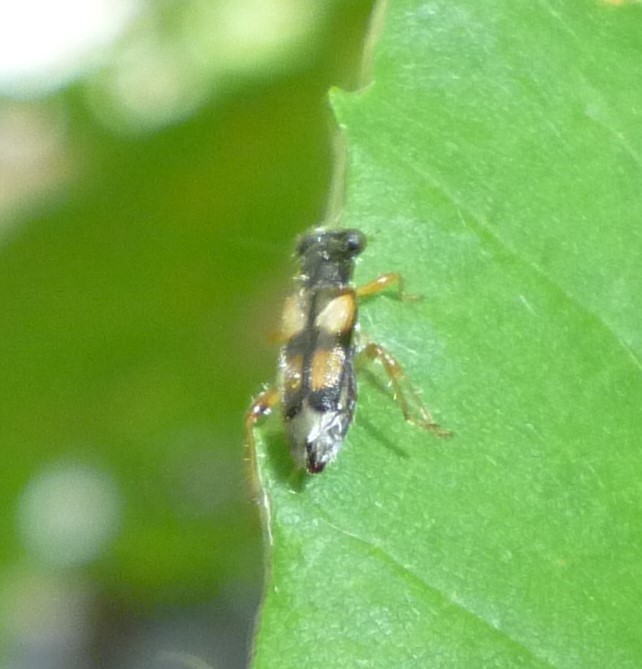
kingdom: Animalia
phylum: Arthropoda
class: Insecta
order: Coleoptera
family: Cleridae
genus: Phyllobaenus
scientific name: Phyllobaenus pallipennis
